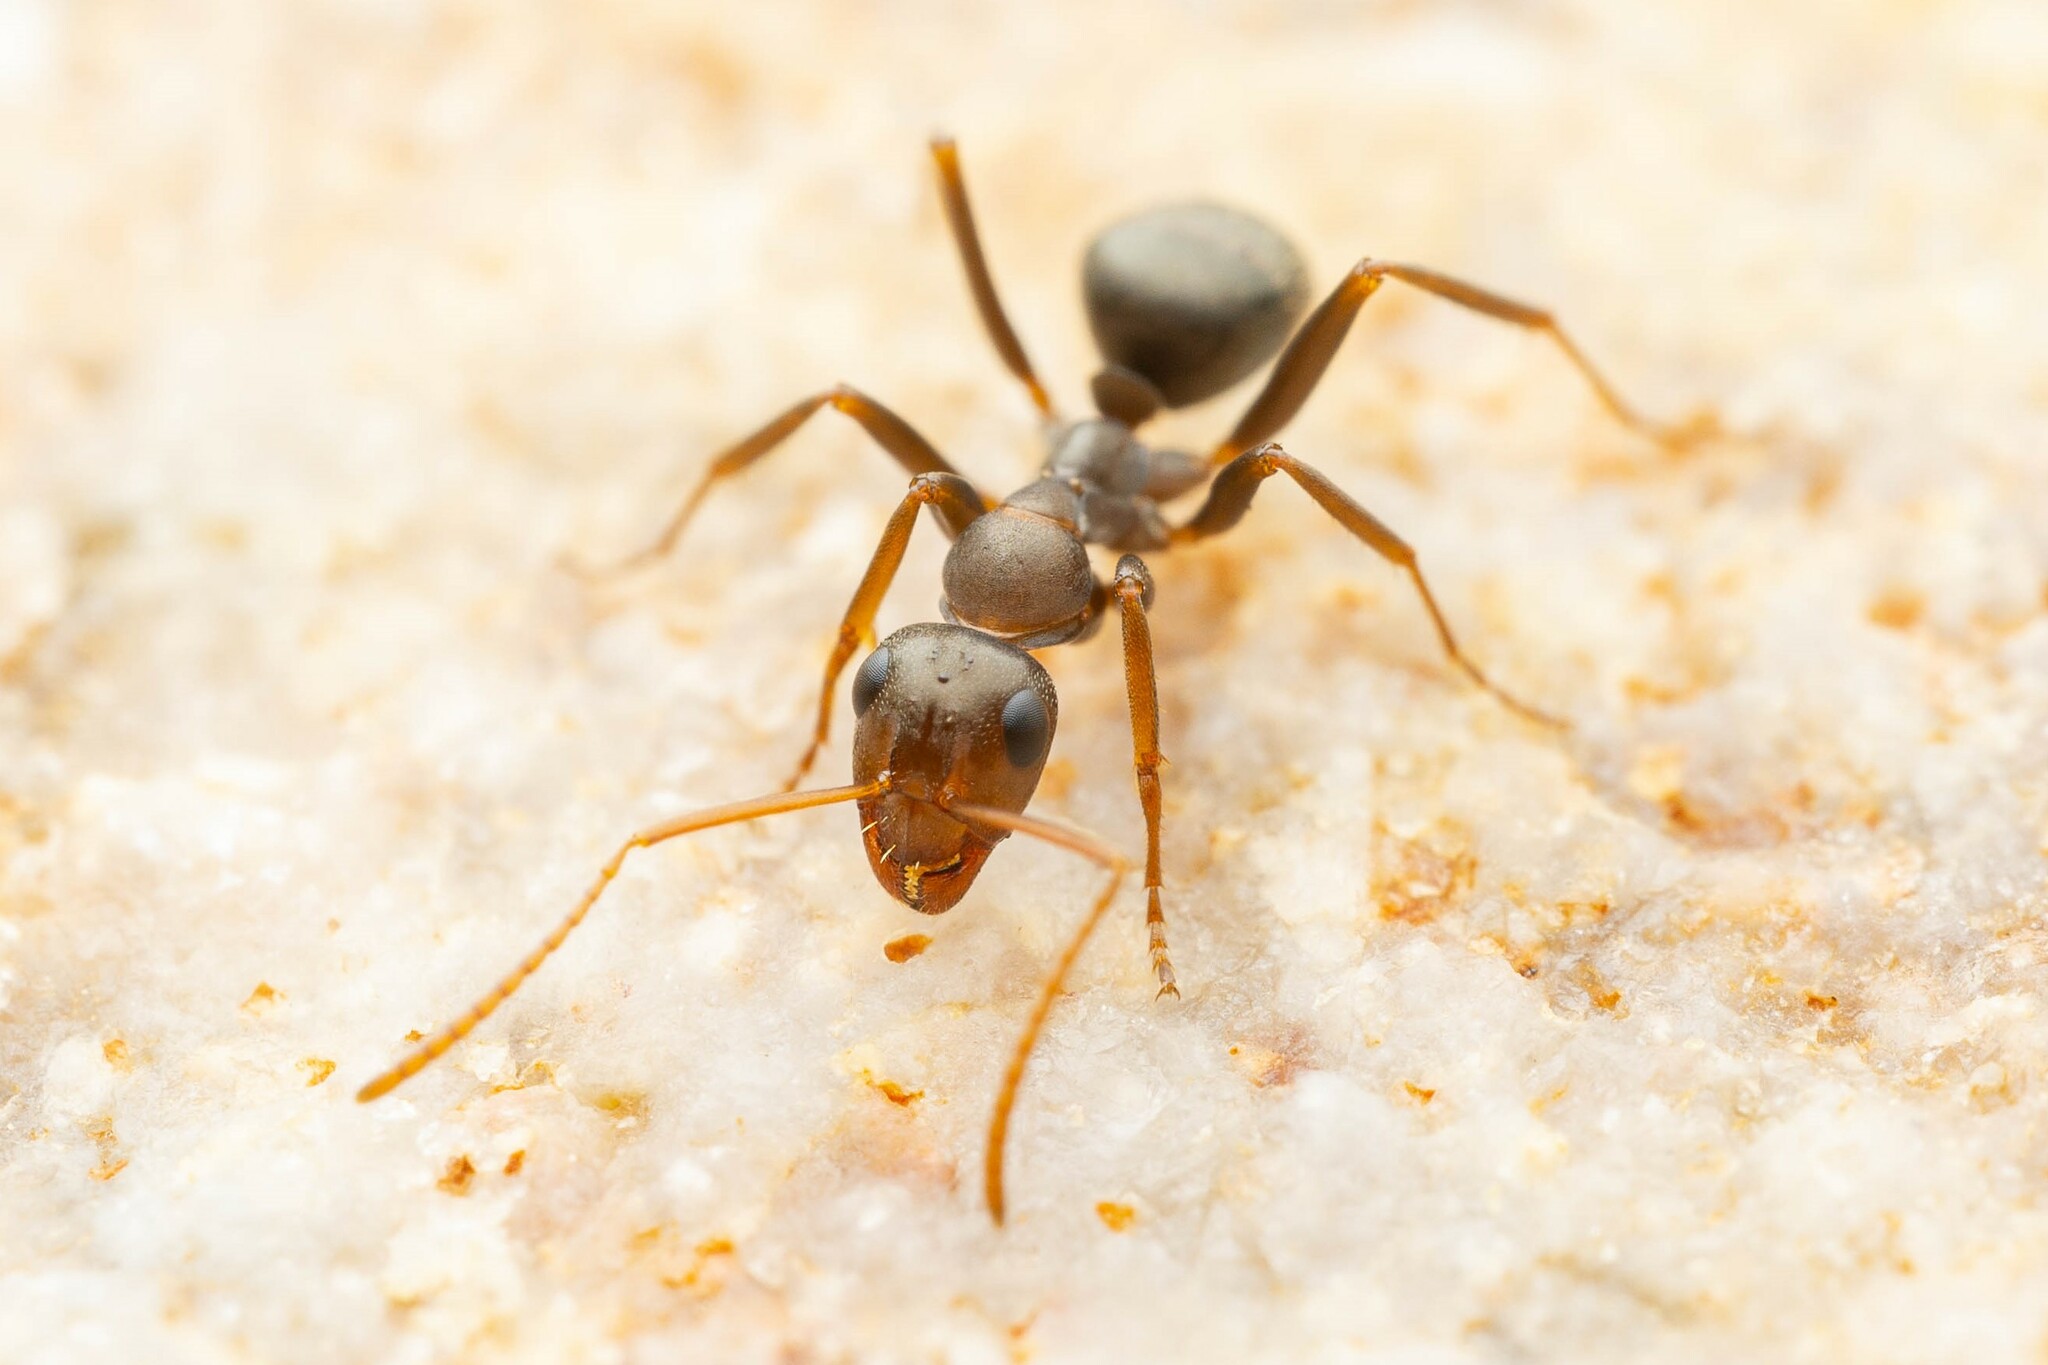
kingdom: Animalia
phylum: Arthropoda
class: Insecta
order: Hymenoptera
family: Formicidae
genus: Formica
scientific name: Formica gnava
